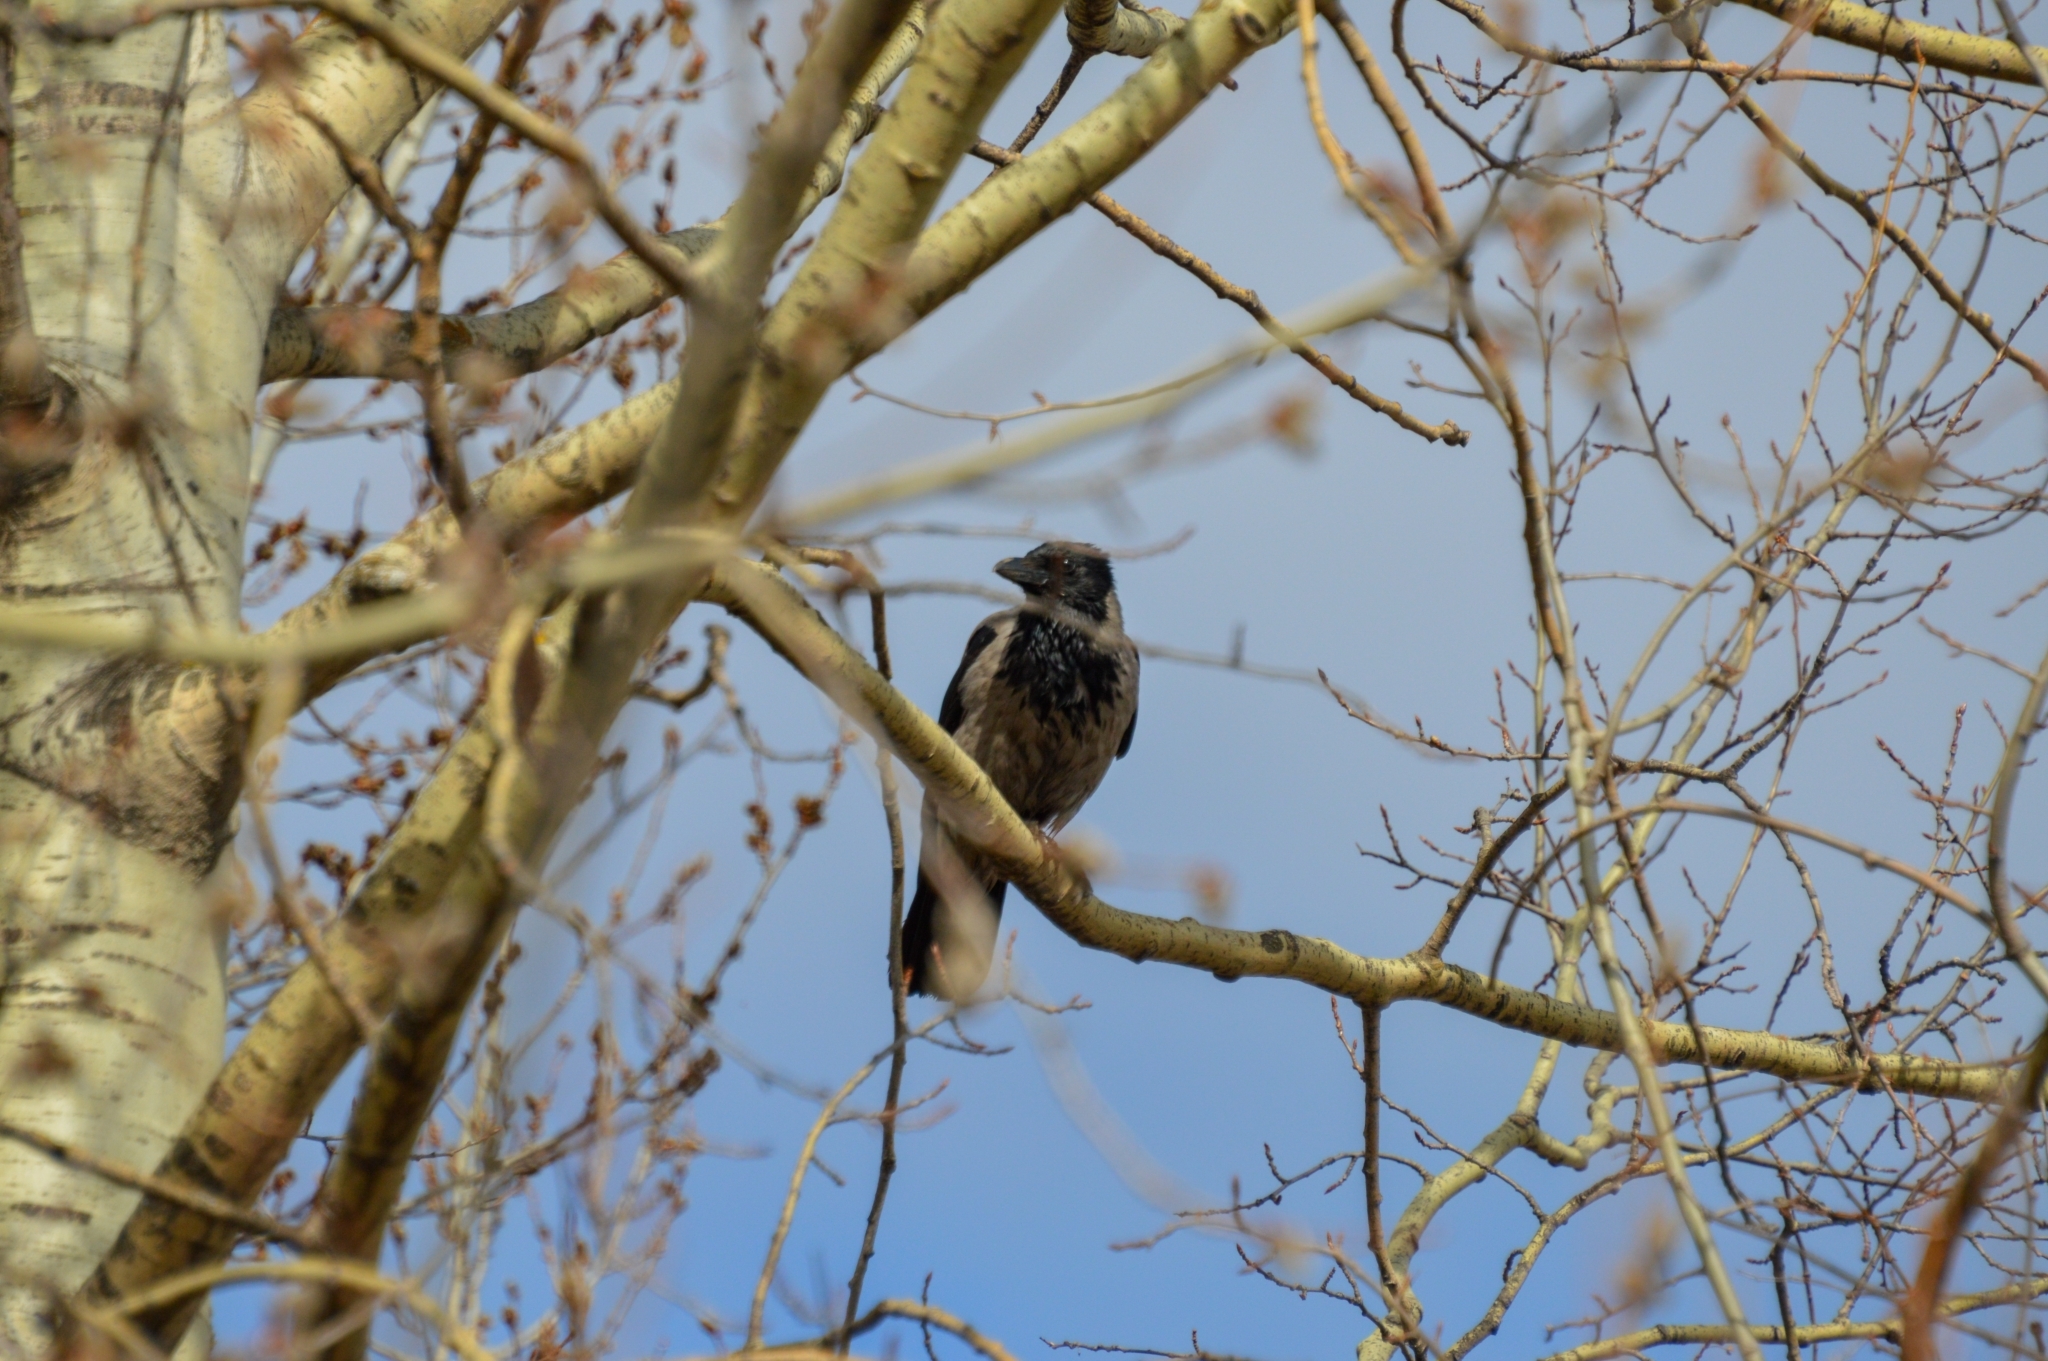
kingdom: Animalia
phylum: Chordata
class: Aves
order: Passeriformes
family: Corvidae
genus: Corvus
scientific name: Corvus cornix
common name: Hooded crow
